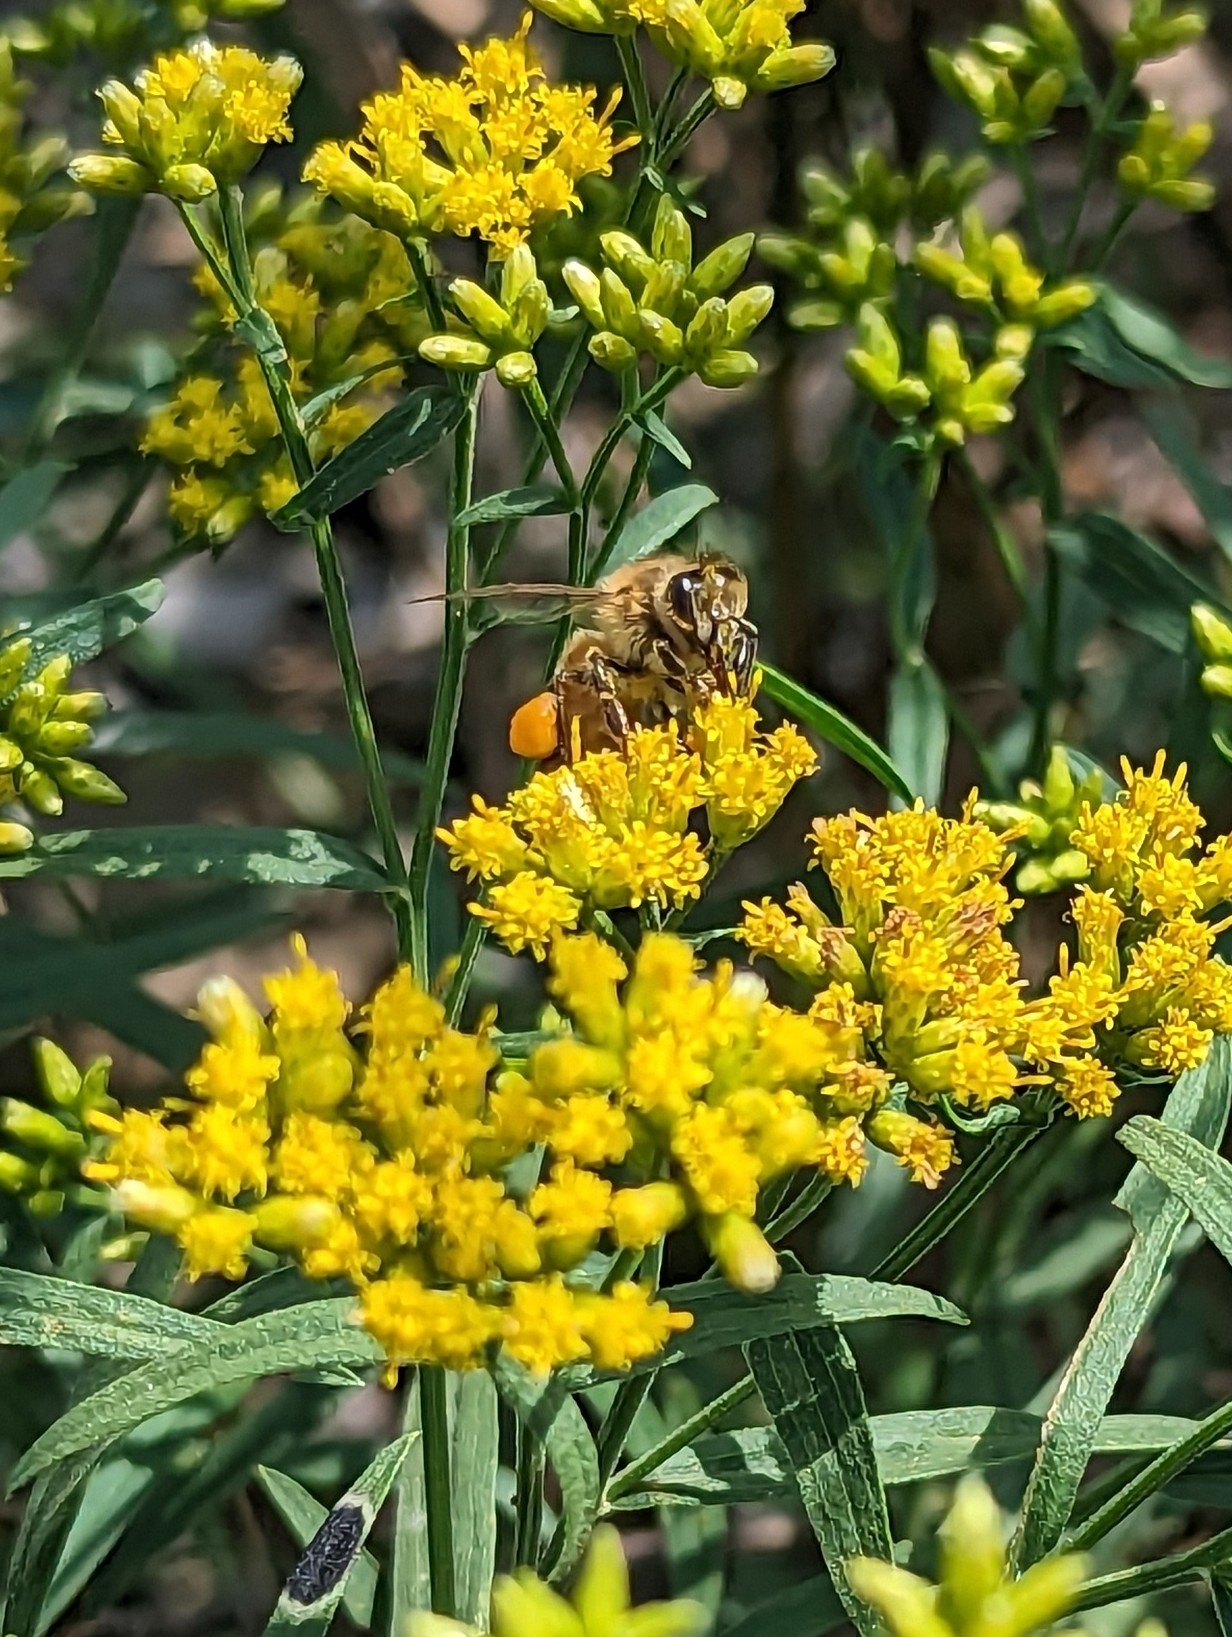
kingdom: Animalia
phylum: Arthropoda
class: Insecta
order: Hymenoptera
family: Apidae
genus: Apis
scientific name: Apis mellifera
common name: Honey bee
